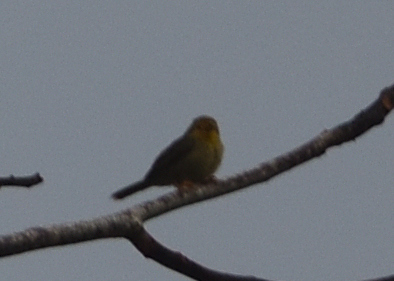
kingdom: Animalia
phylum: Chordata
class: Aves
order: Passeriformes
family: Furnariidae
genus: Metopothrix
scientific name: Metopothrix aurantiaca
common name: Orange-fronted plushcrown
